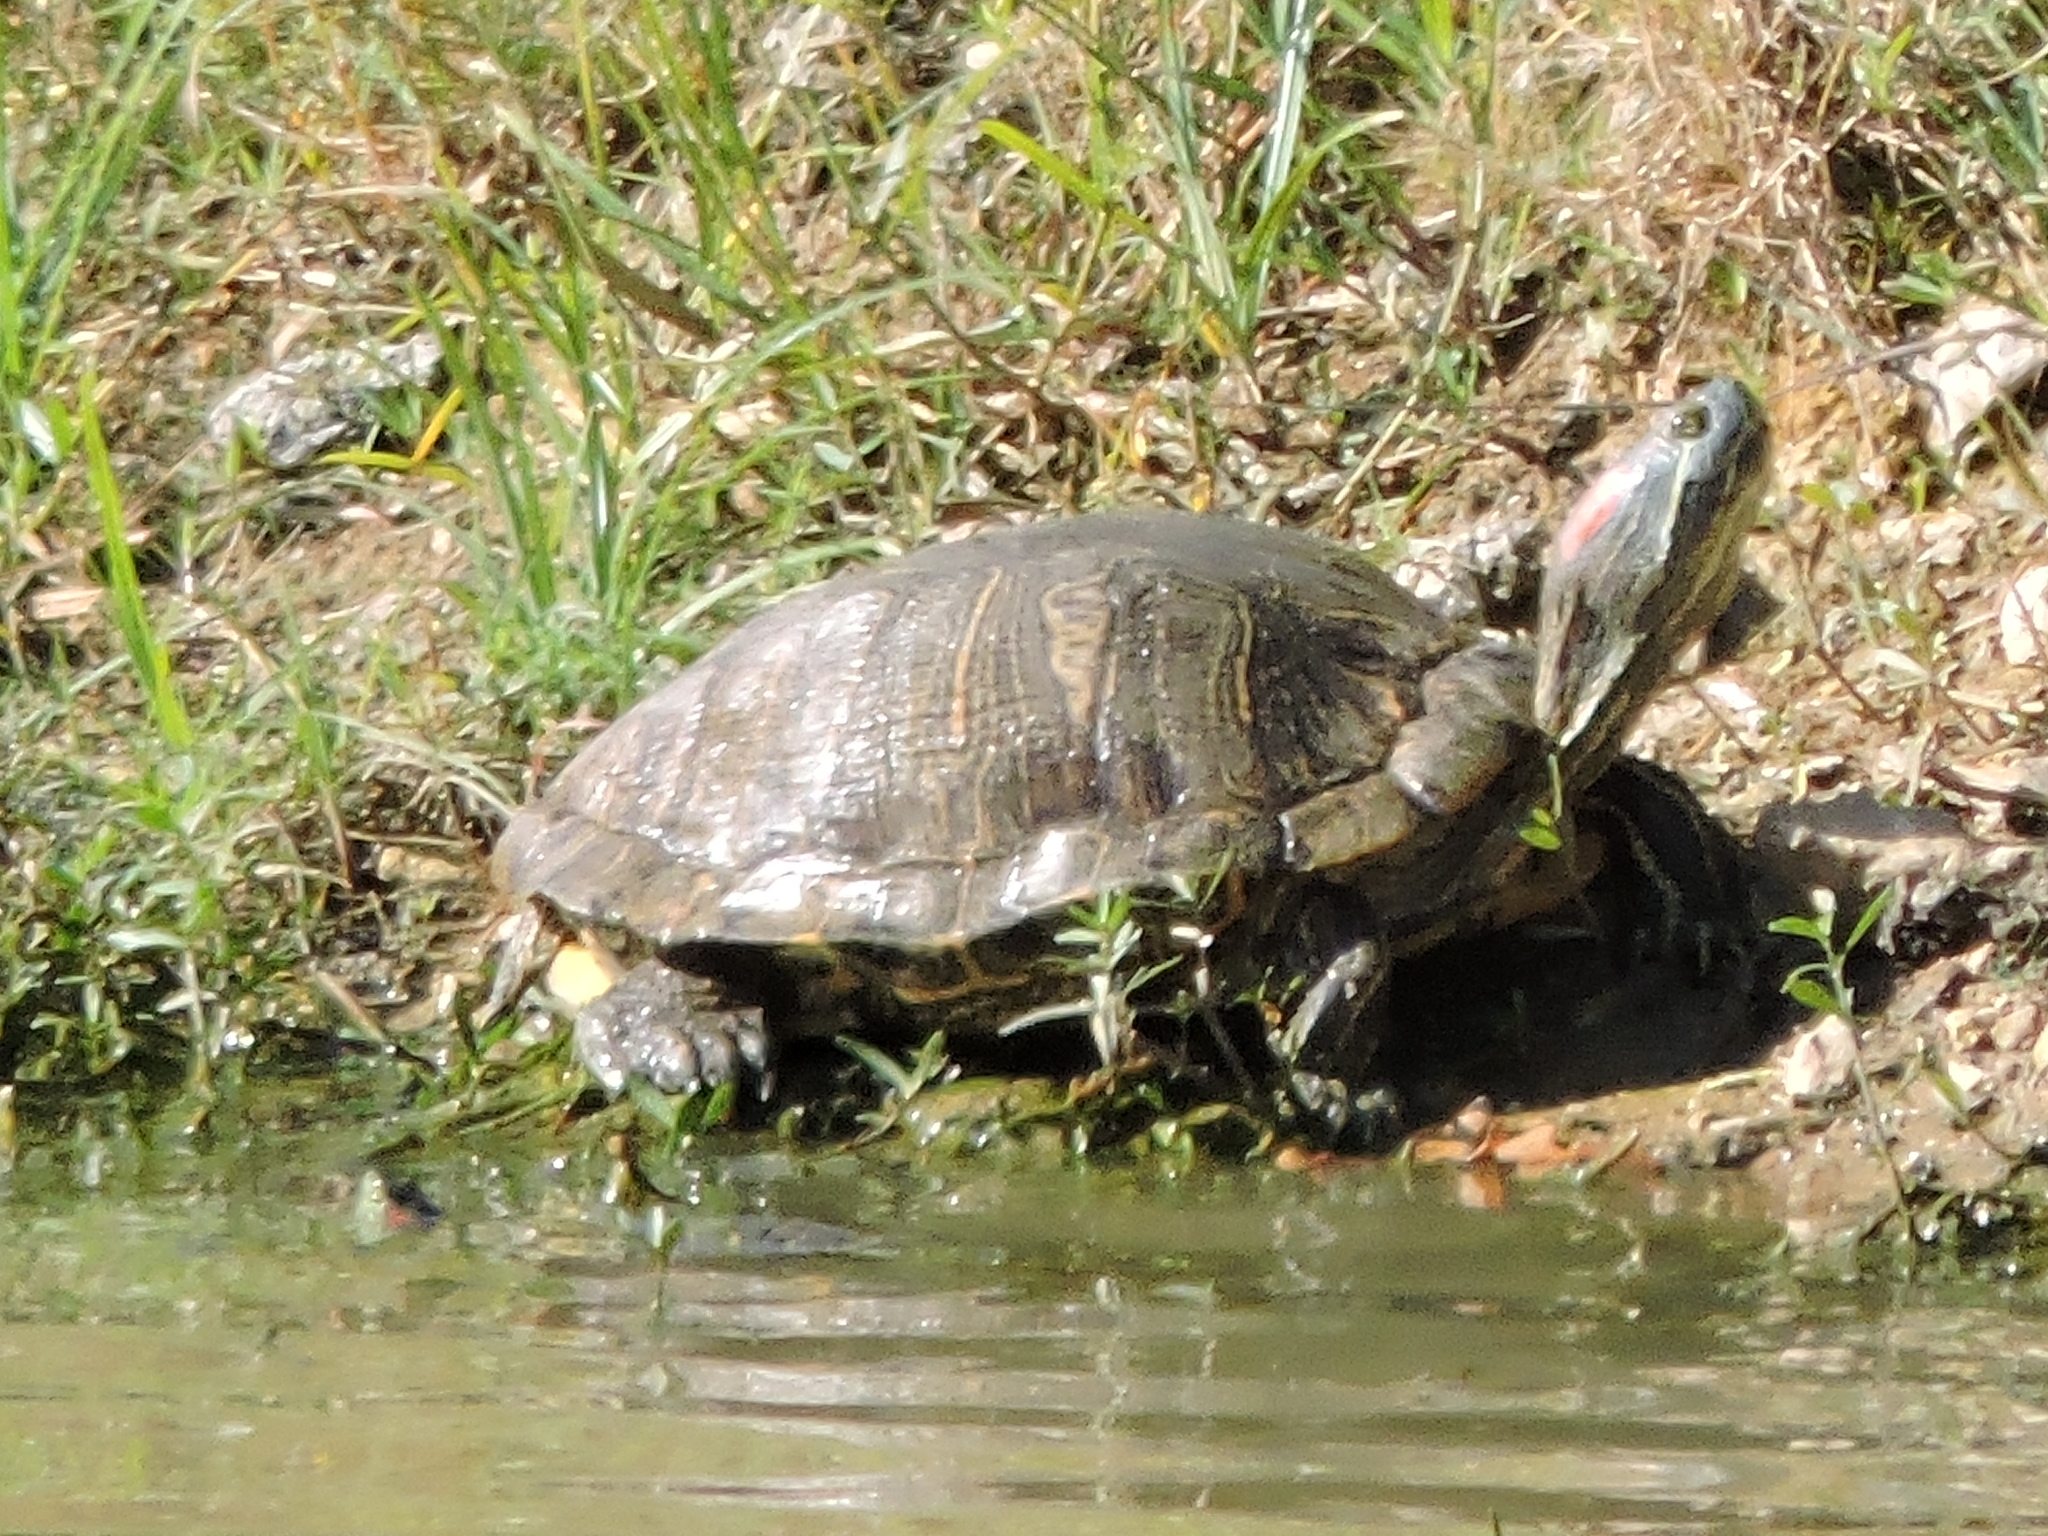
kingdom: Animalia
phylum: Chordata
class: Testudines
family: Emydidae
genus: Trachemys
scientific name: Trachemys scripta
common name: Slider
